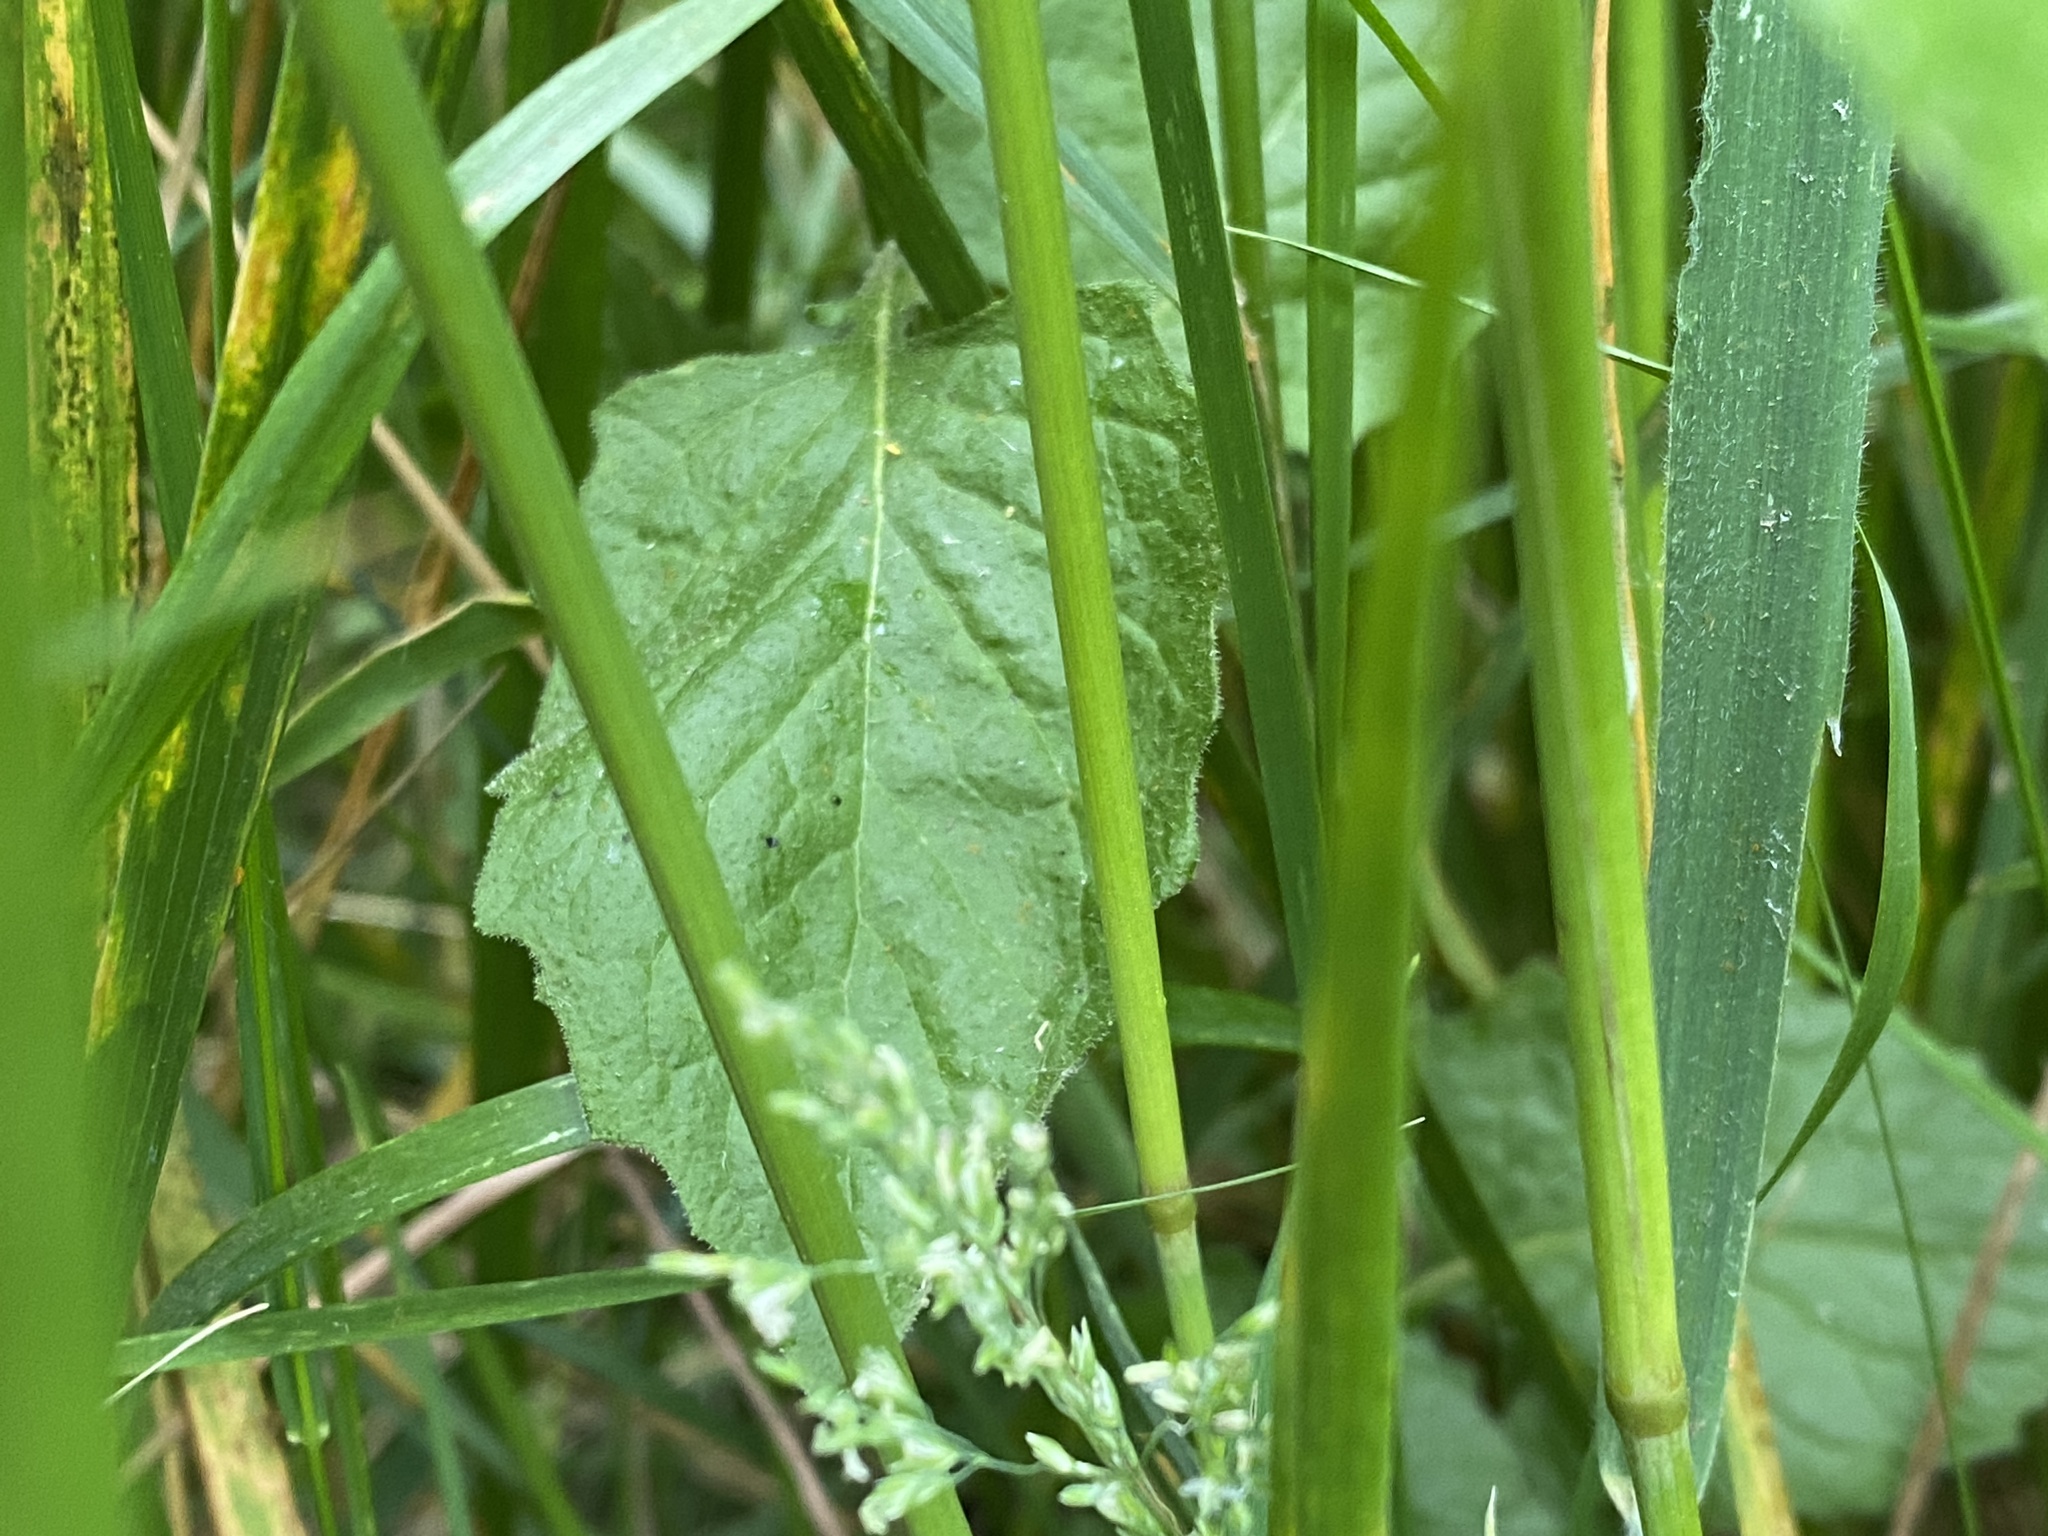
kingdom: Plantae
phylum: Tracheophyta
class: Magnoliopsida
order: Asterales
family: Asteraceae
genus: Lapsana
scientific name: Lapsana communis
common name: Nipplewort
